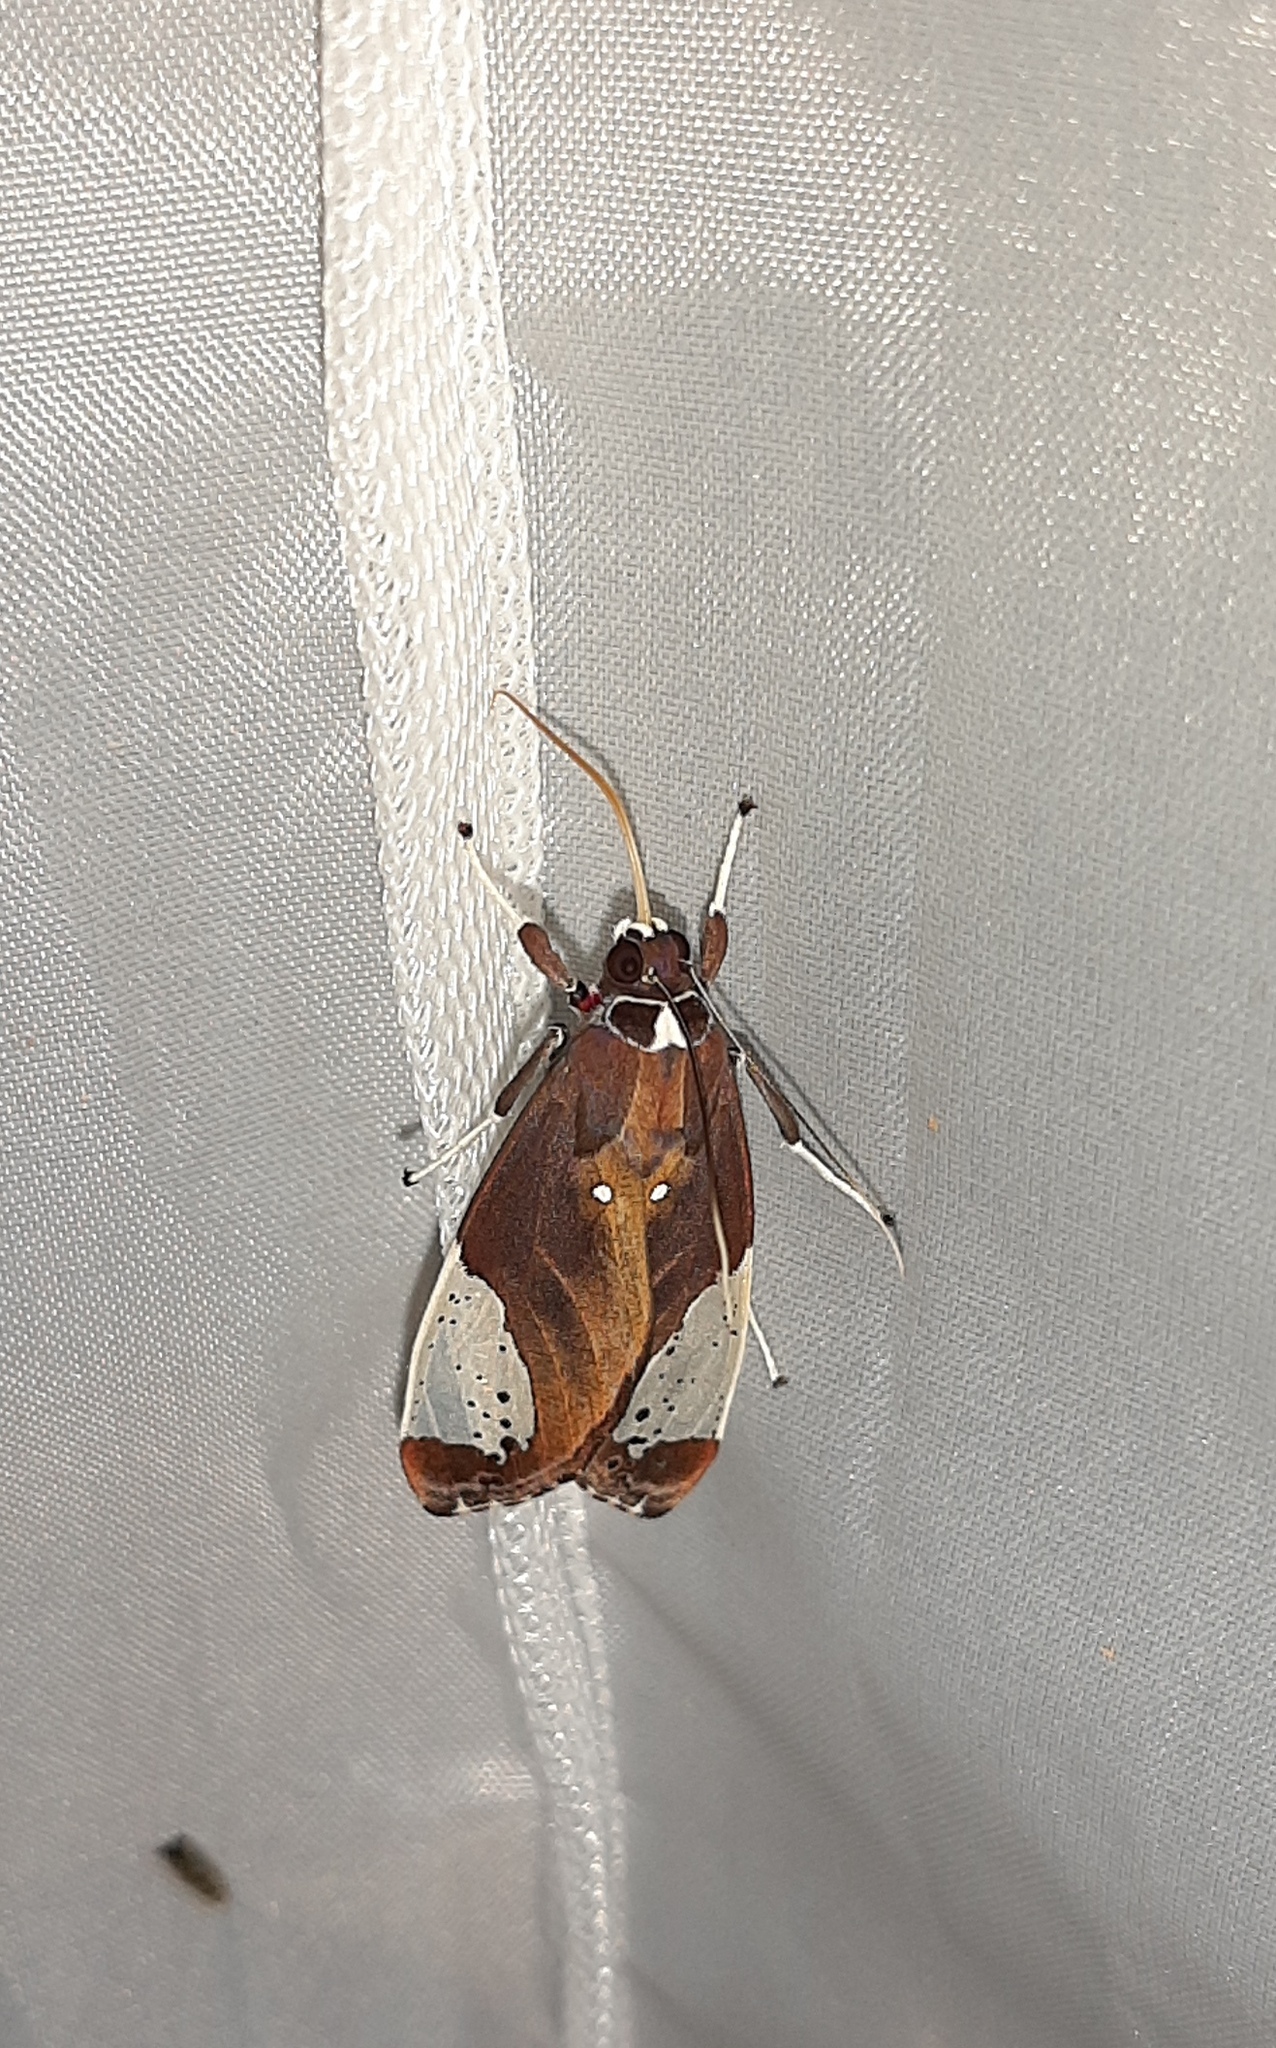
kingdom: Animalia
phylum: Arthropoda
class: Insecta
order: Lepidoptera
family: Erebidae
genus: Bertholdia
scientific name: Bertholdia albipuncta
